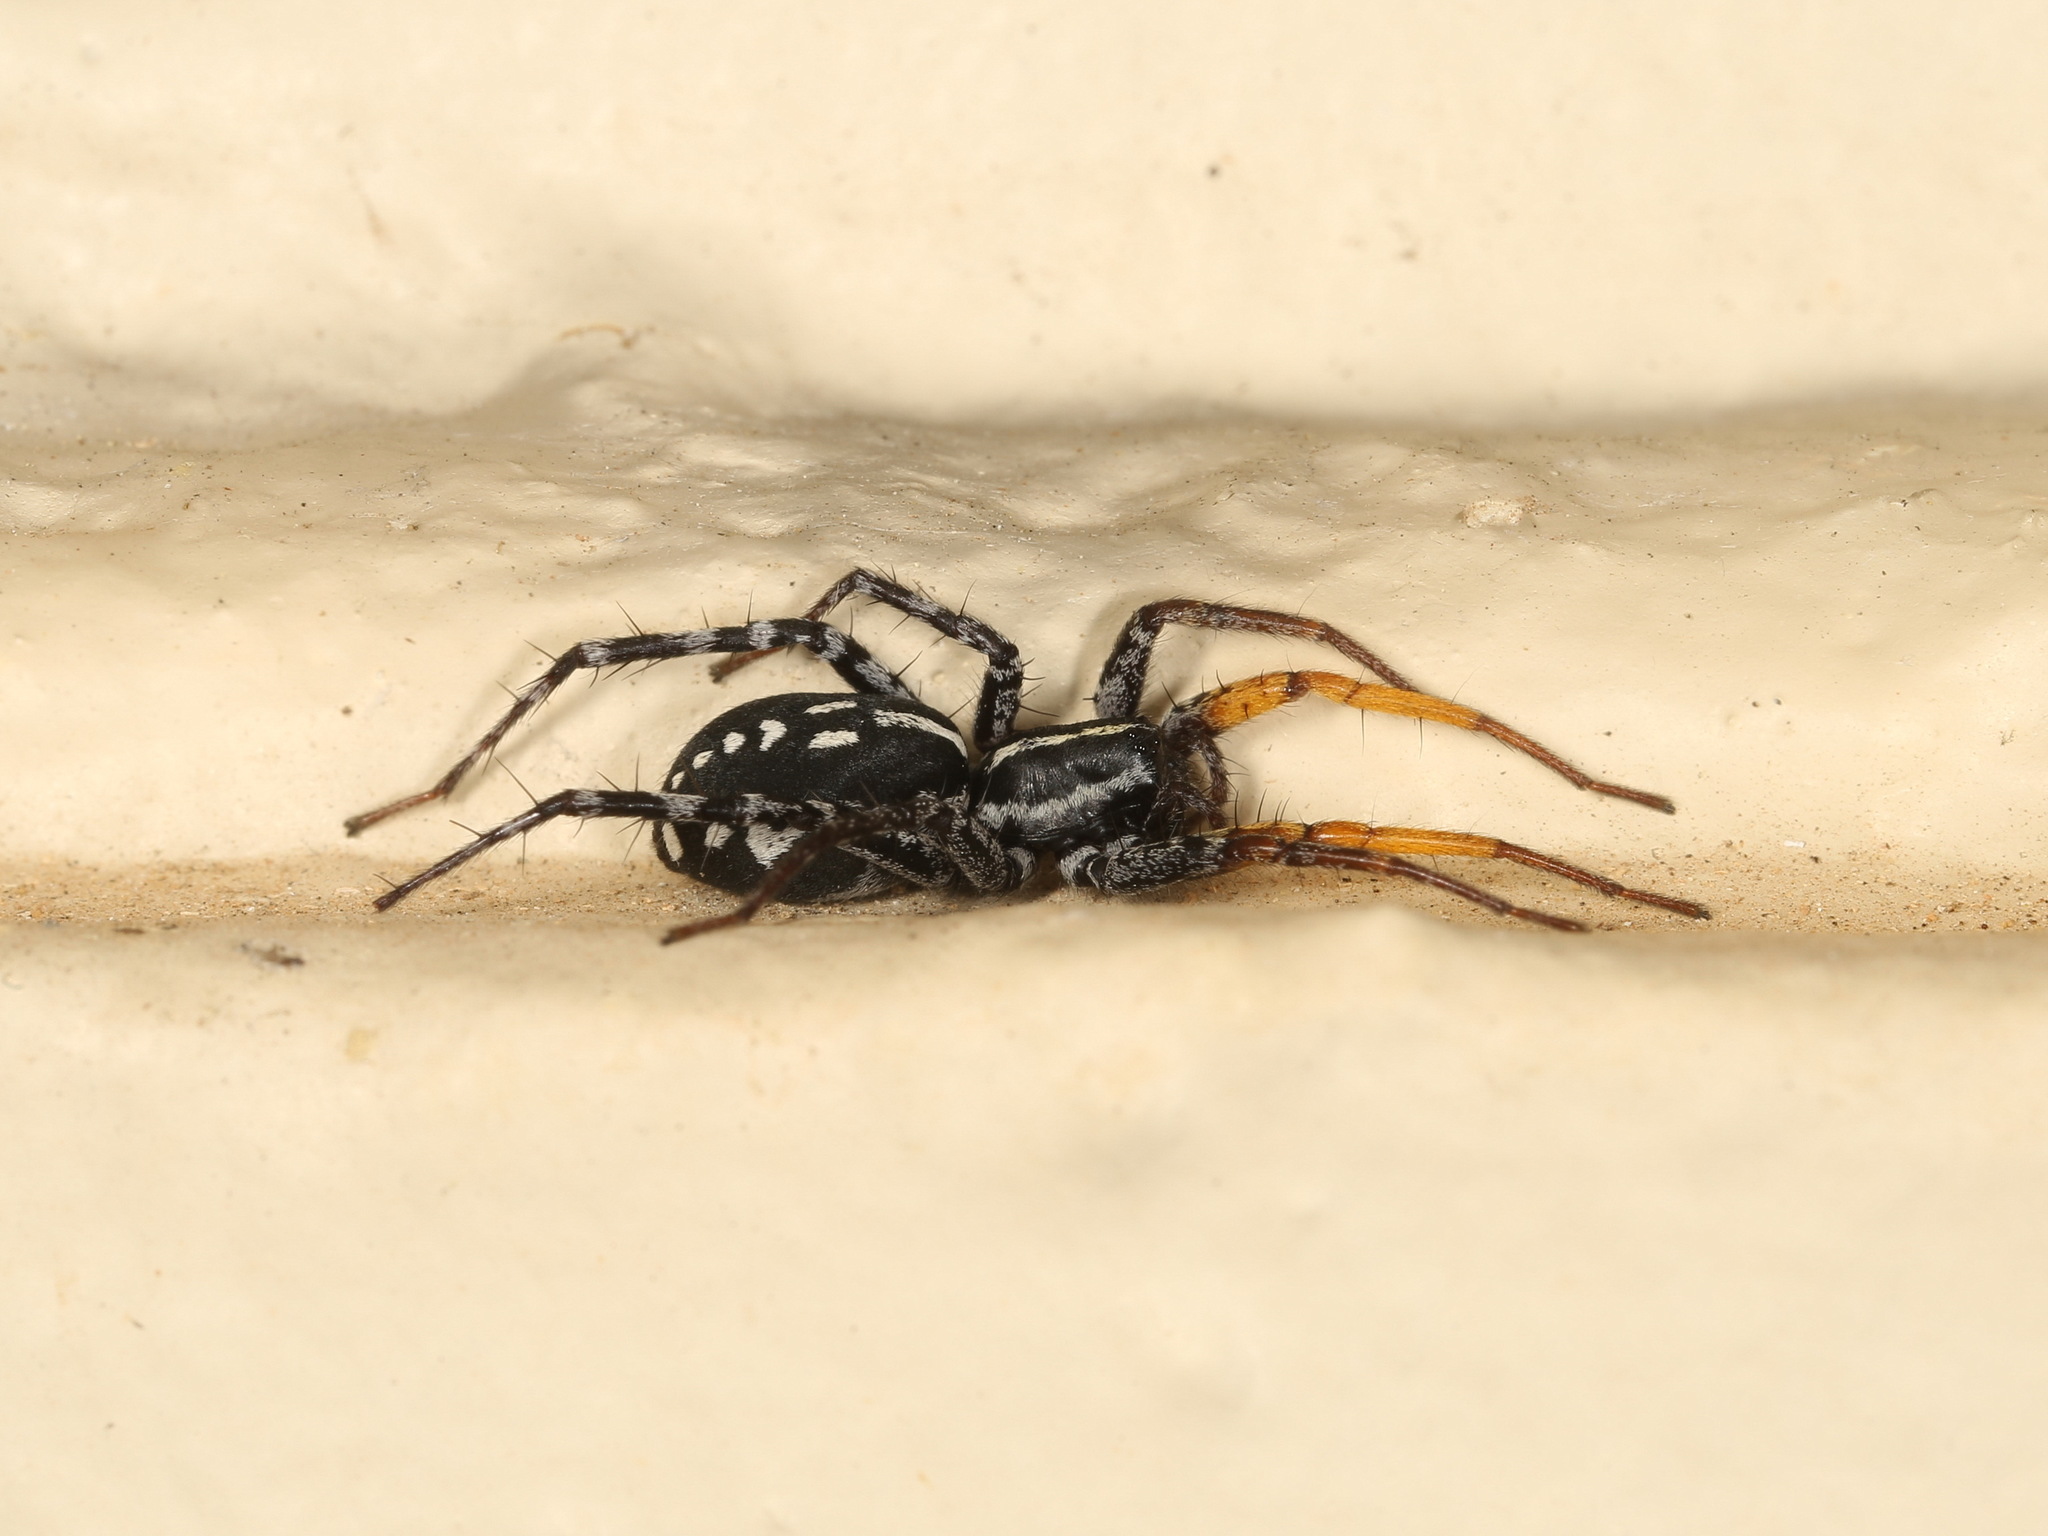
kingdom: Animalia
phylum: Arthropoda
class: Arachnida
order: Araneae
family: Corinnidae
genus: Nyssus
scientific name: Nyssus coloripes
